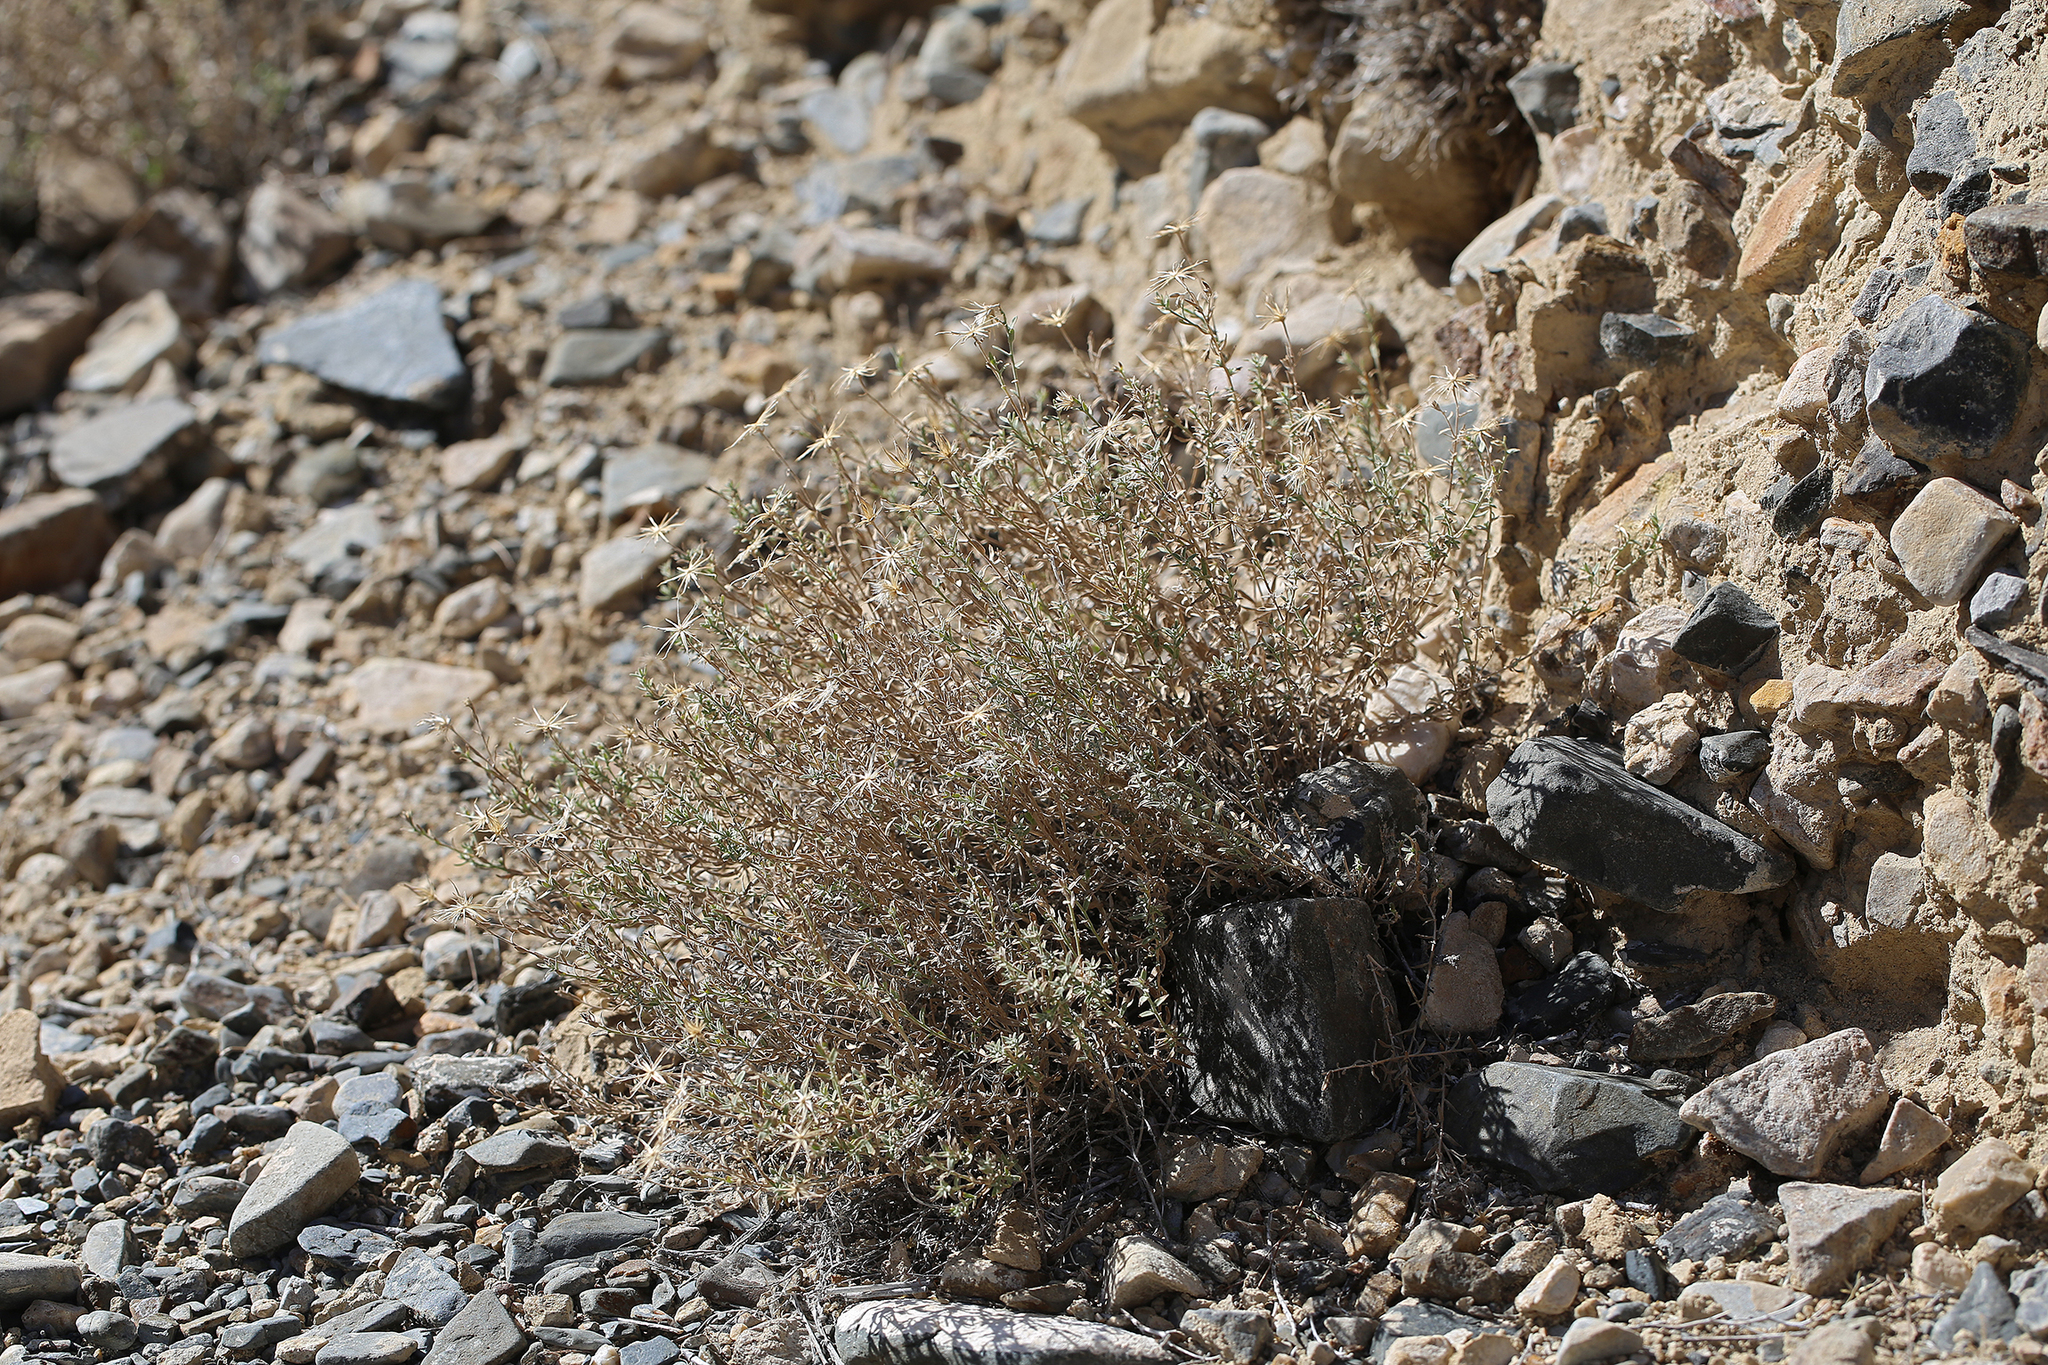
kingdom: Plantae
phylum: Tracheophyta
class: Magnoliopsida
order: Asterales
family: Asteraceae
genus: Brickellia
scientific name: Brickellia oblongifolia
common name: Mojave brickellbush
